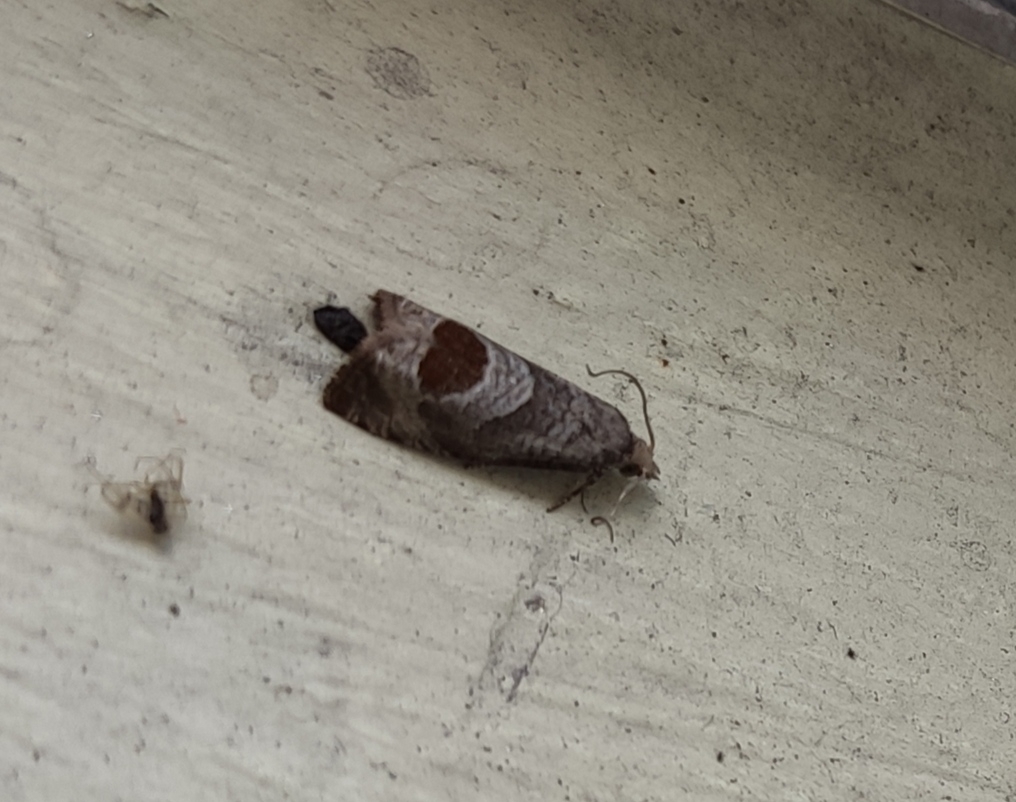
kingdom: Animalia
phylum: Arthropoda
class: Insecta
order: Lepidoptera
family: Tortricidae
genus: Notocelia
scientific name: Notocelia uddmanniana
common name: Bramble shoot moth
